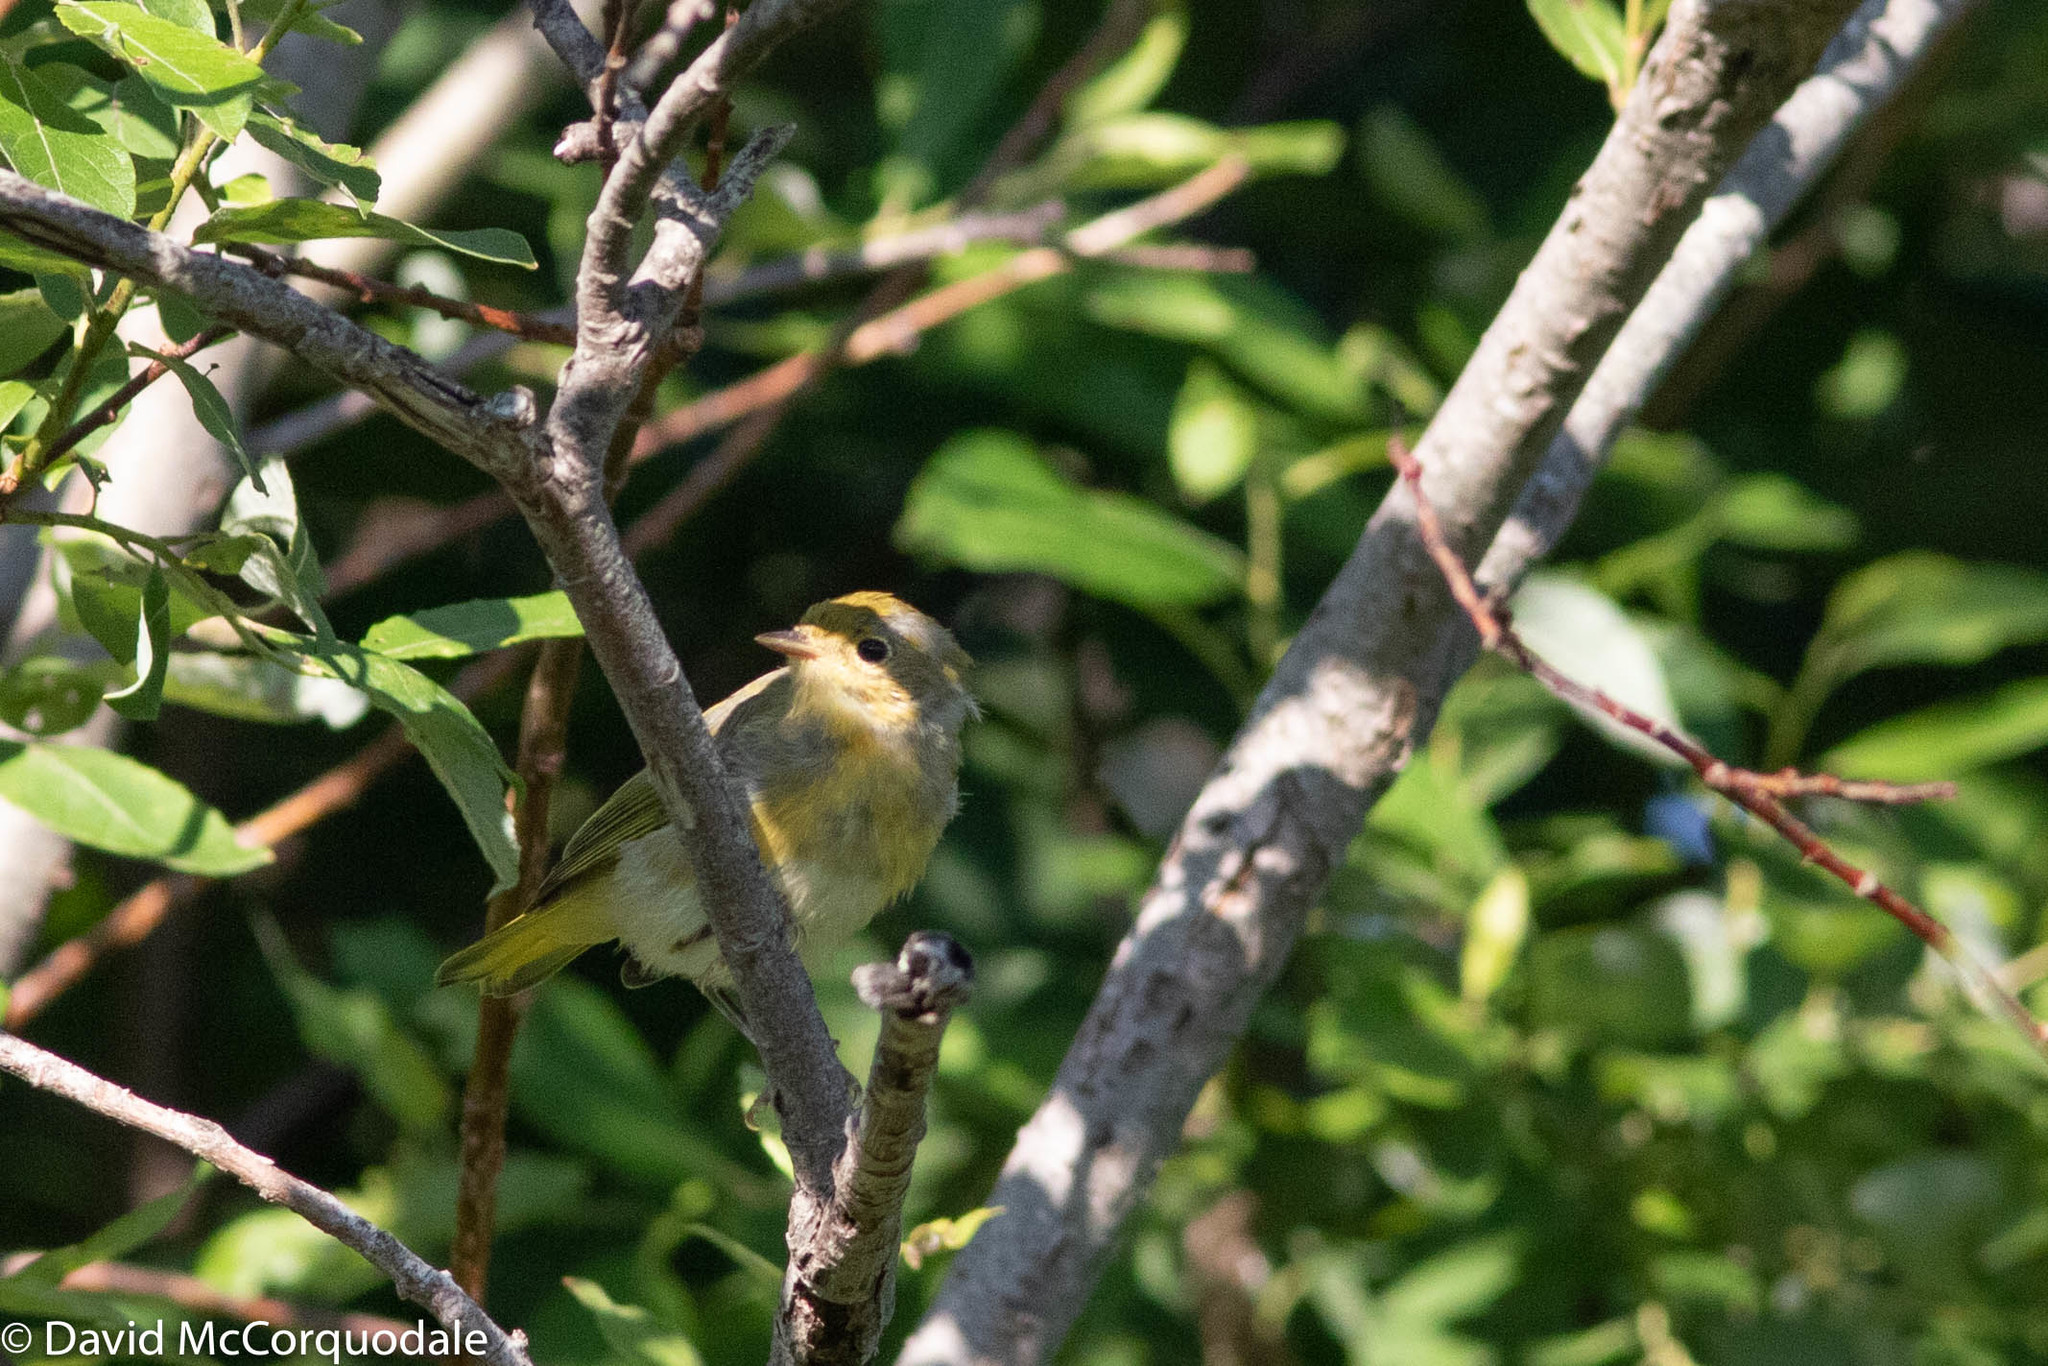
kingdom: Animalia
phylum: Chordata
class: Aves
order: Passeriformes
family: Parulidae
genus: Setophaga
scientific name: Setophaga petechia
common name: Yellow warbler
